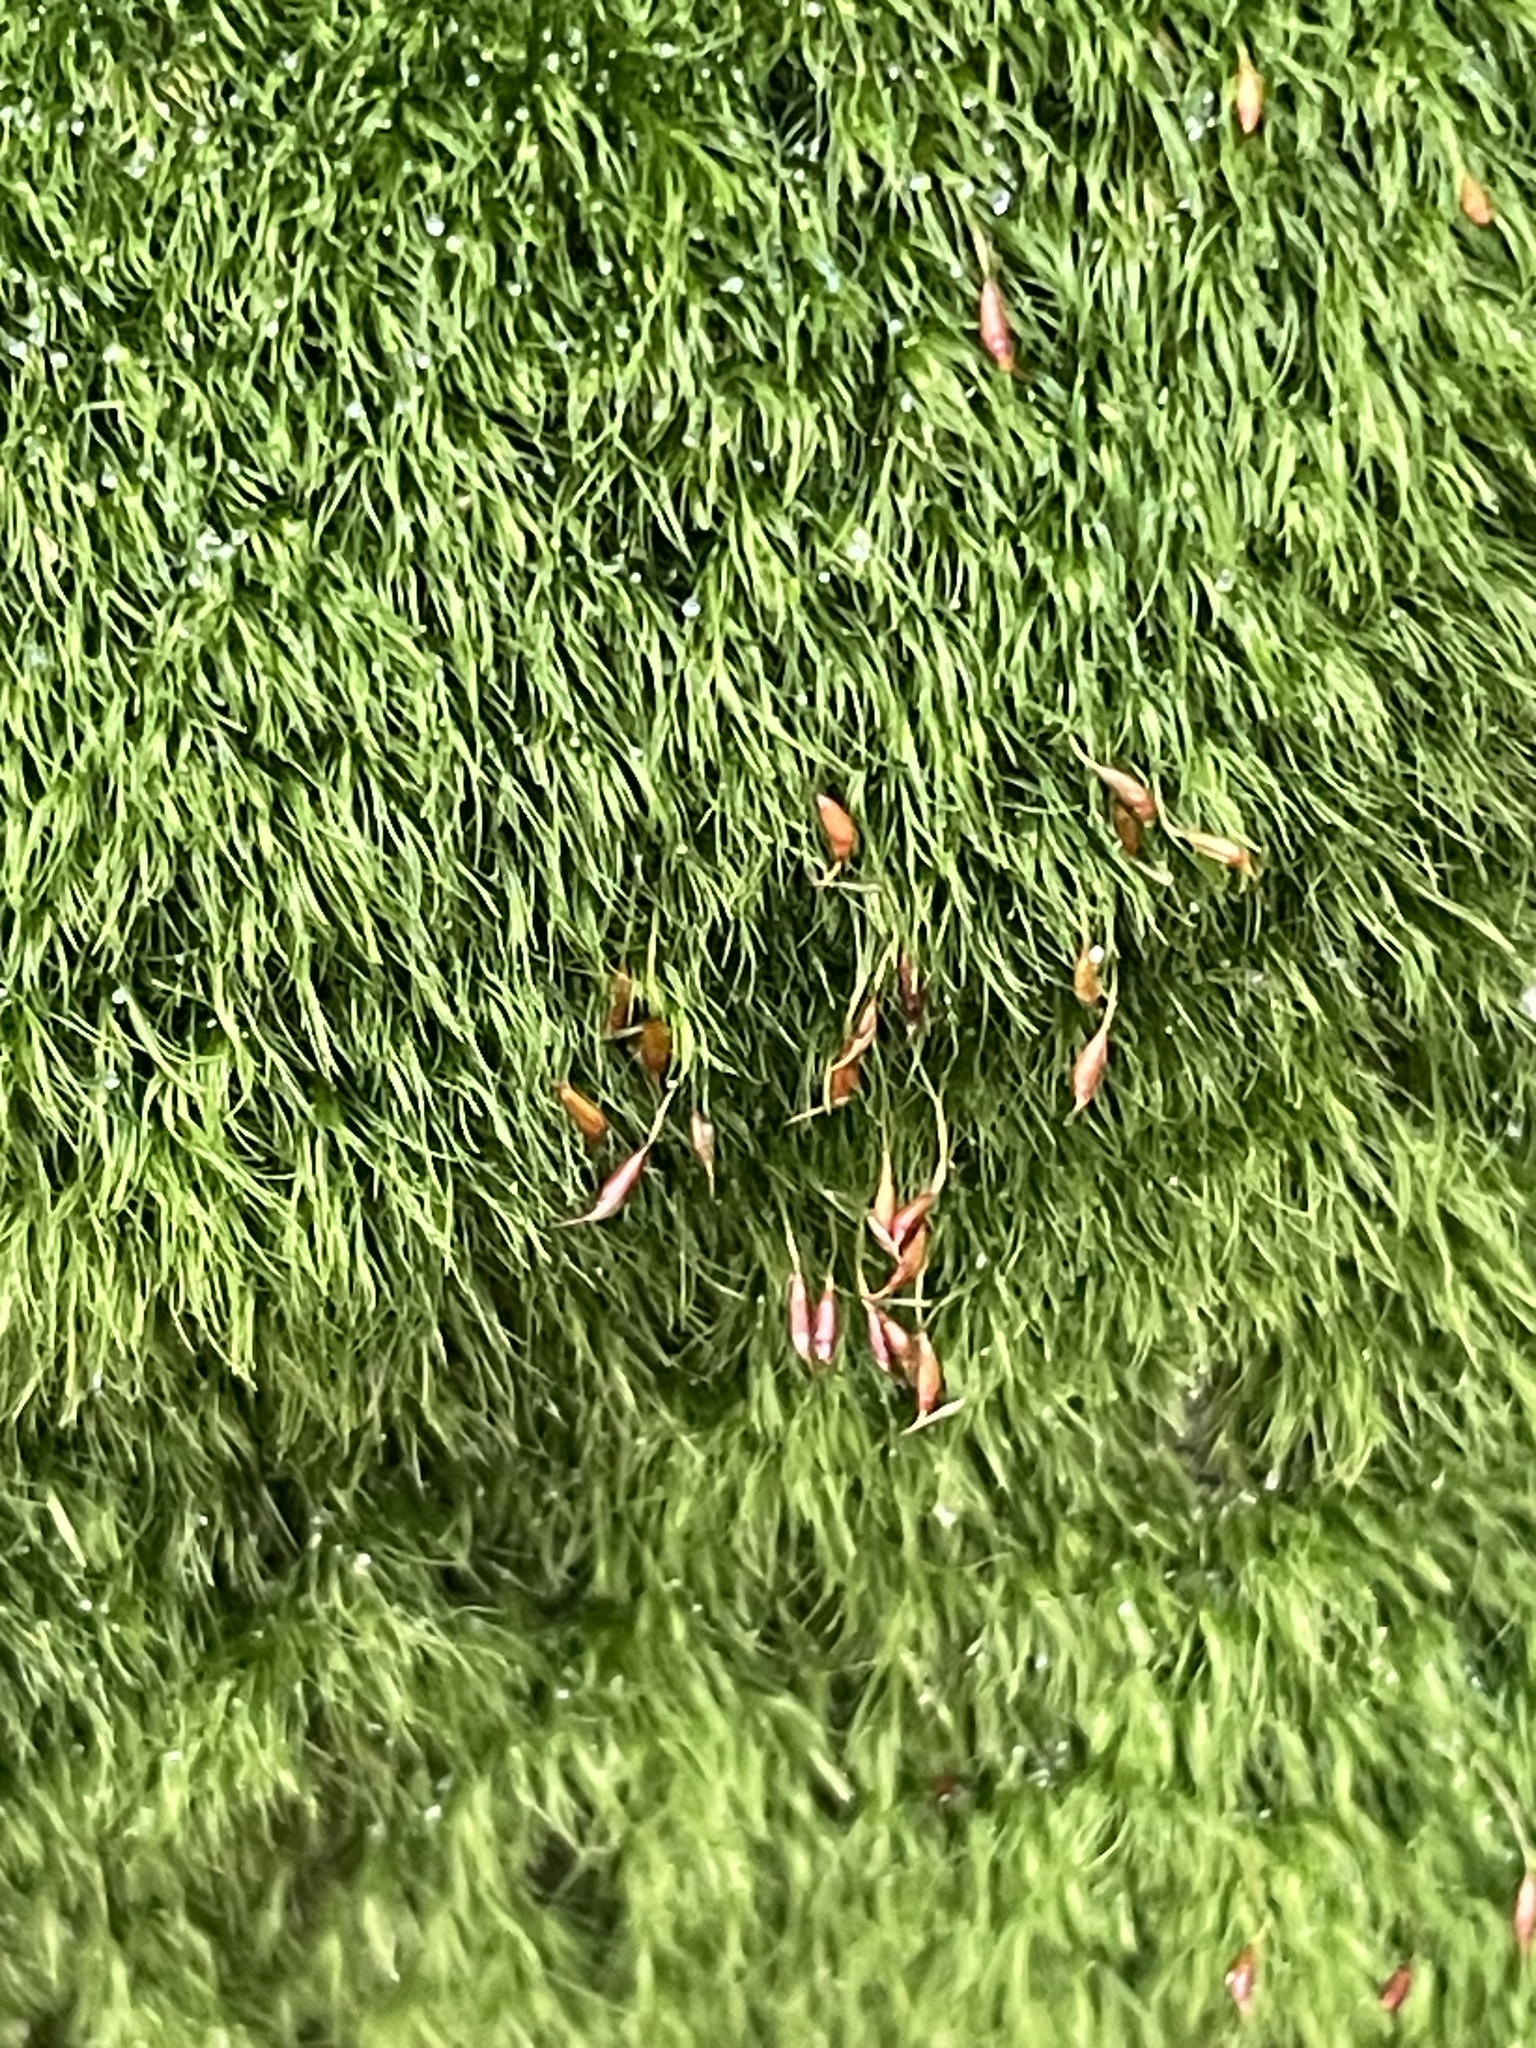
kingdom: Plantae
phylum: Bryophyta
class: Bryopsida
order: Dicranales
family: Dicranellaceae
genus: Dicranella
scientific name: Dicranella heteromalla
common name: Silky forklet moss
